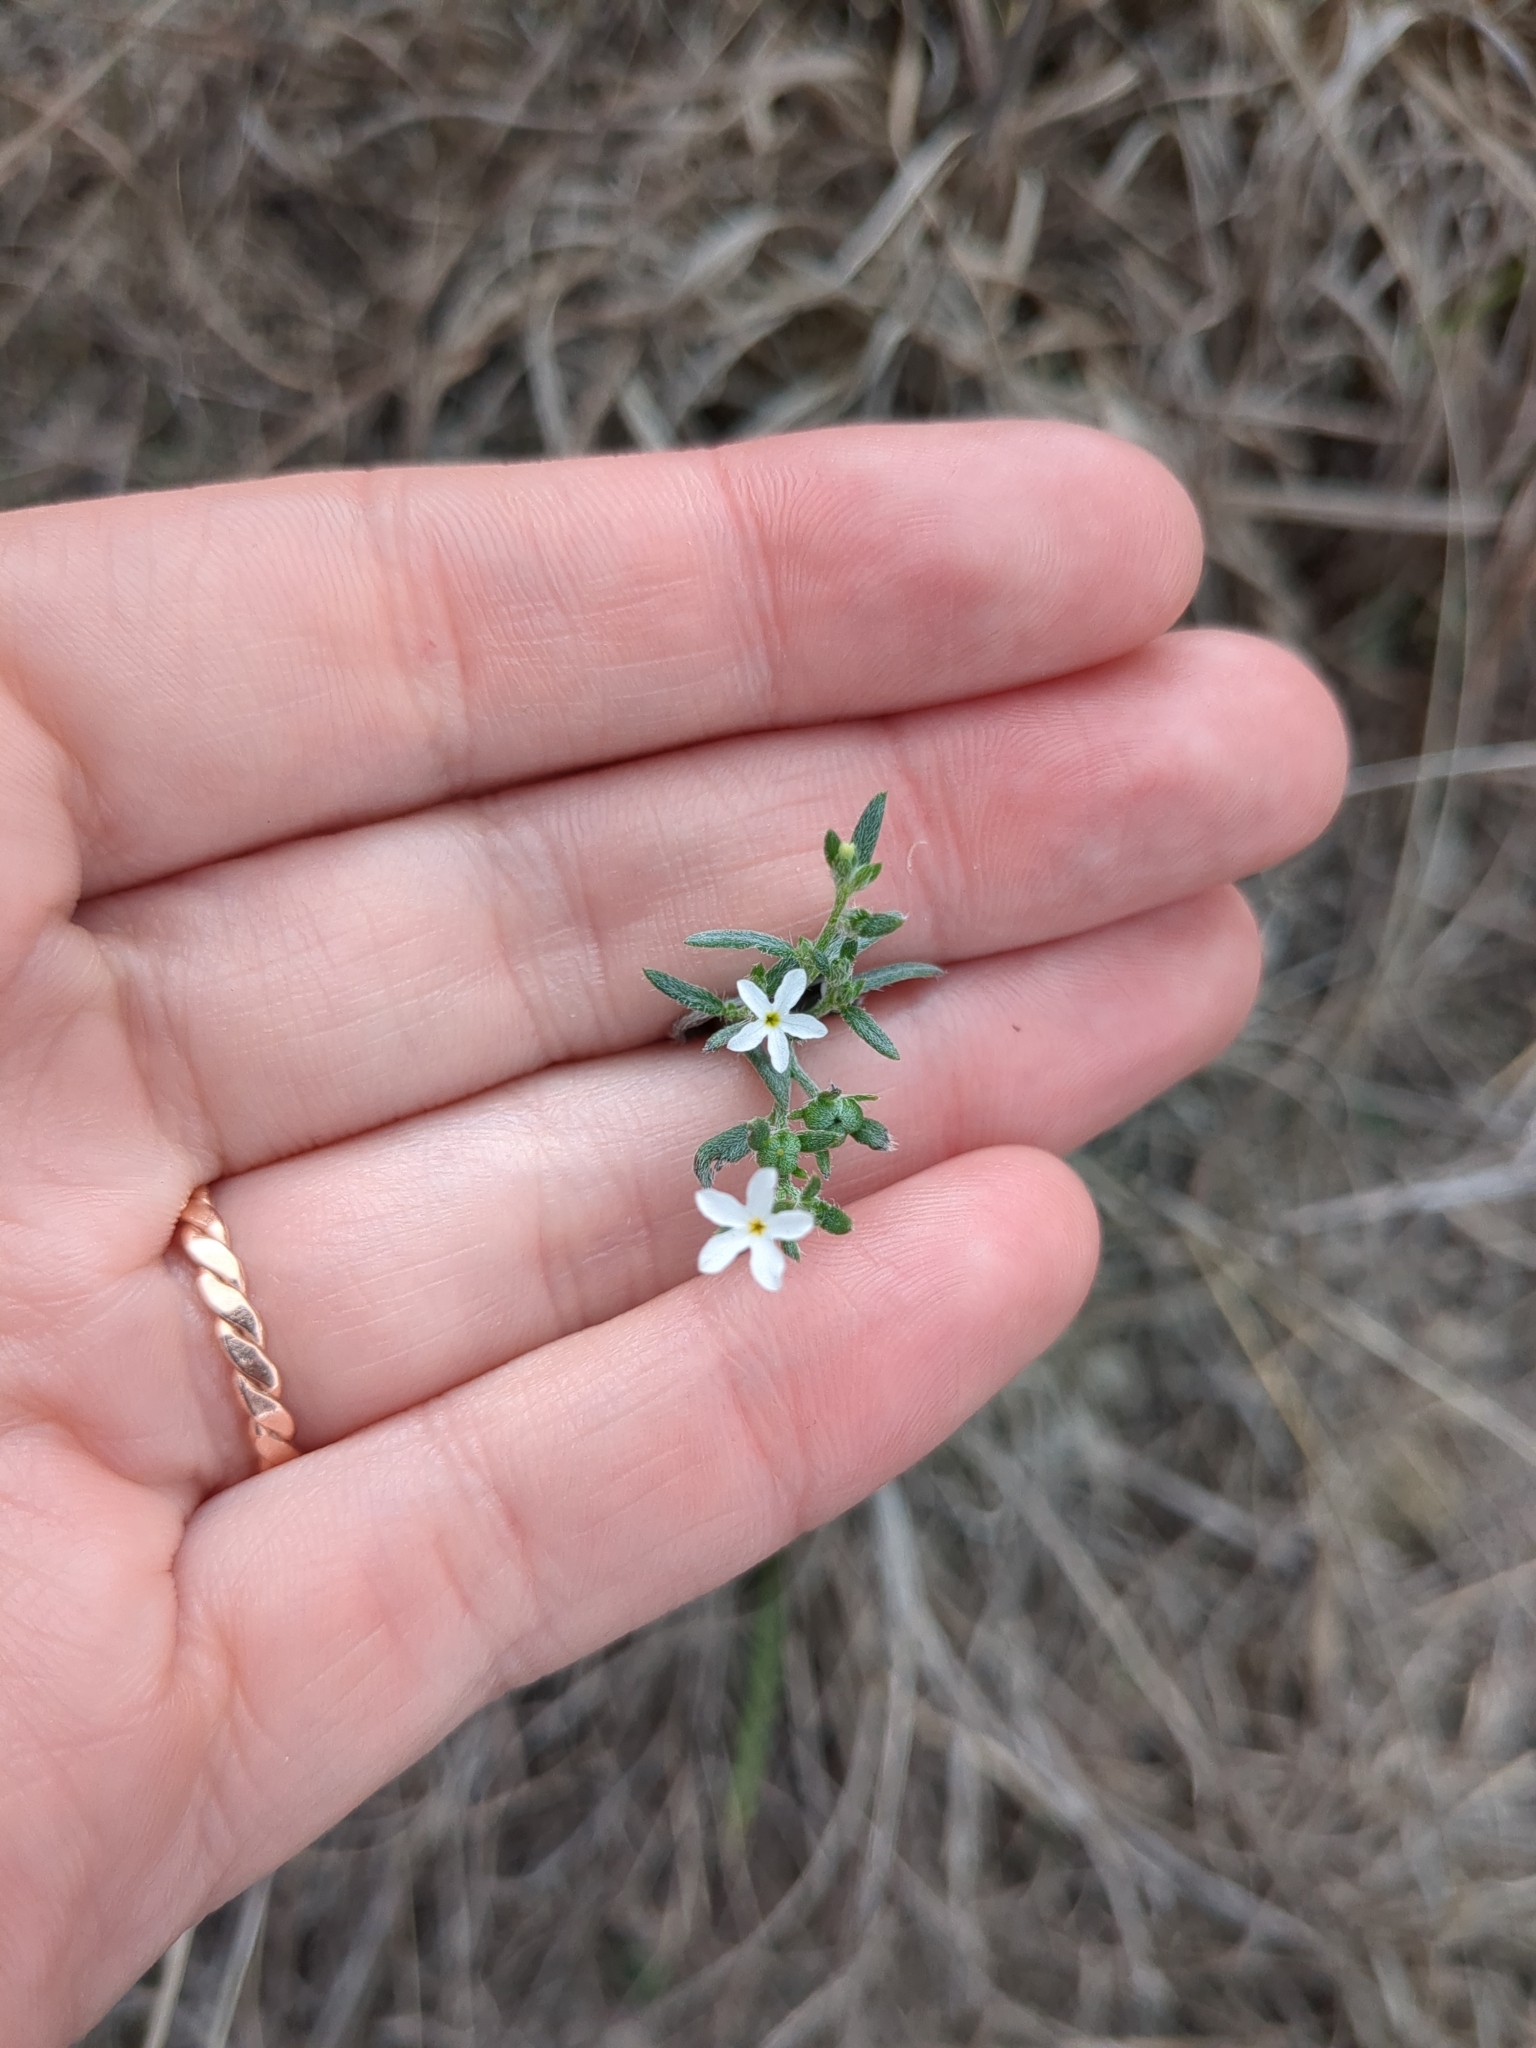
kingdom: Plantae
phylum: Tracheophyta
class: Magnoliopsida
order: Boraginales
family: Heliotropiaceae
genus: Euploca
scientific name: Euploca tenella
